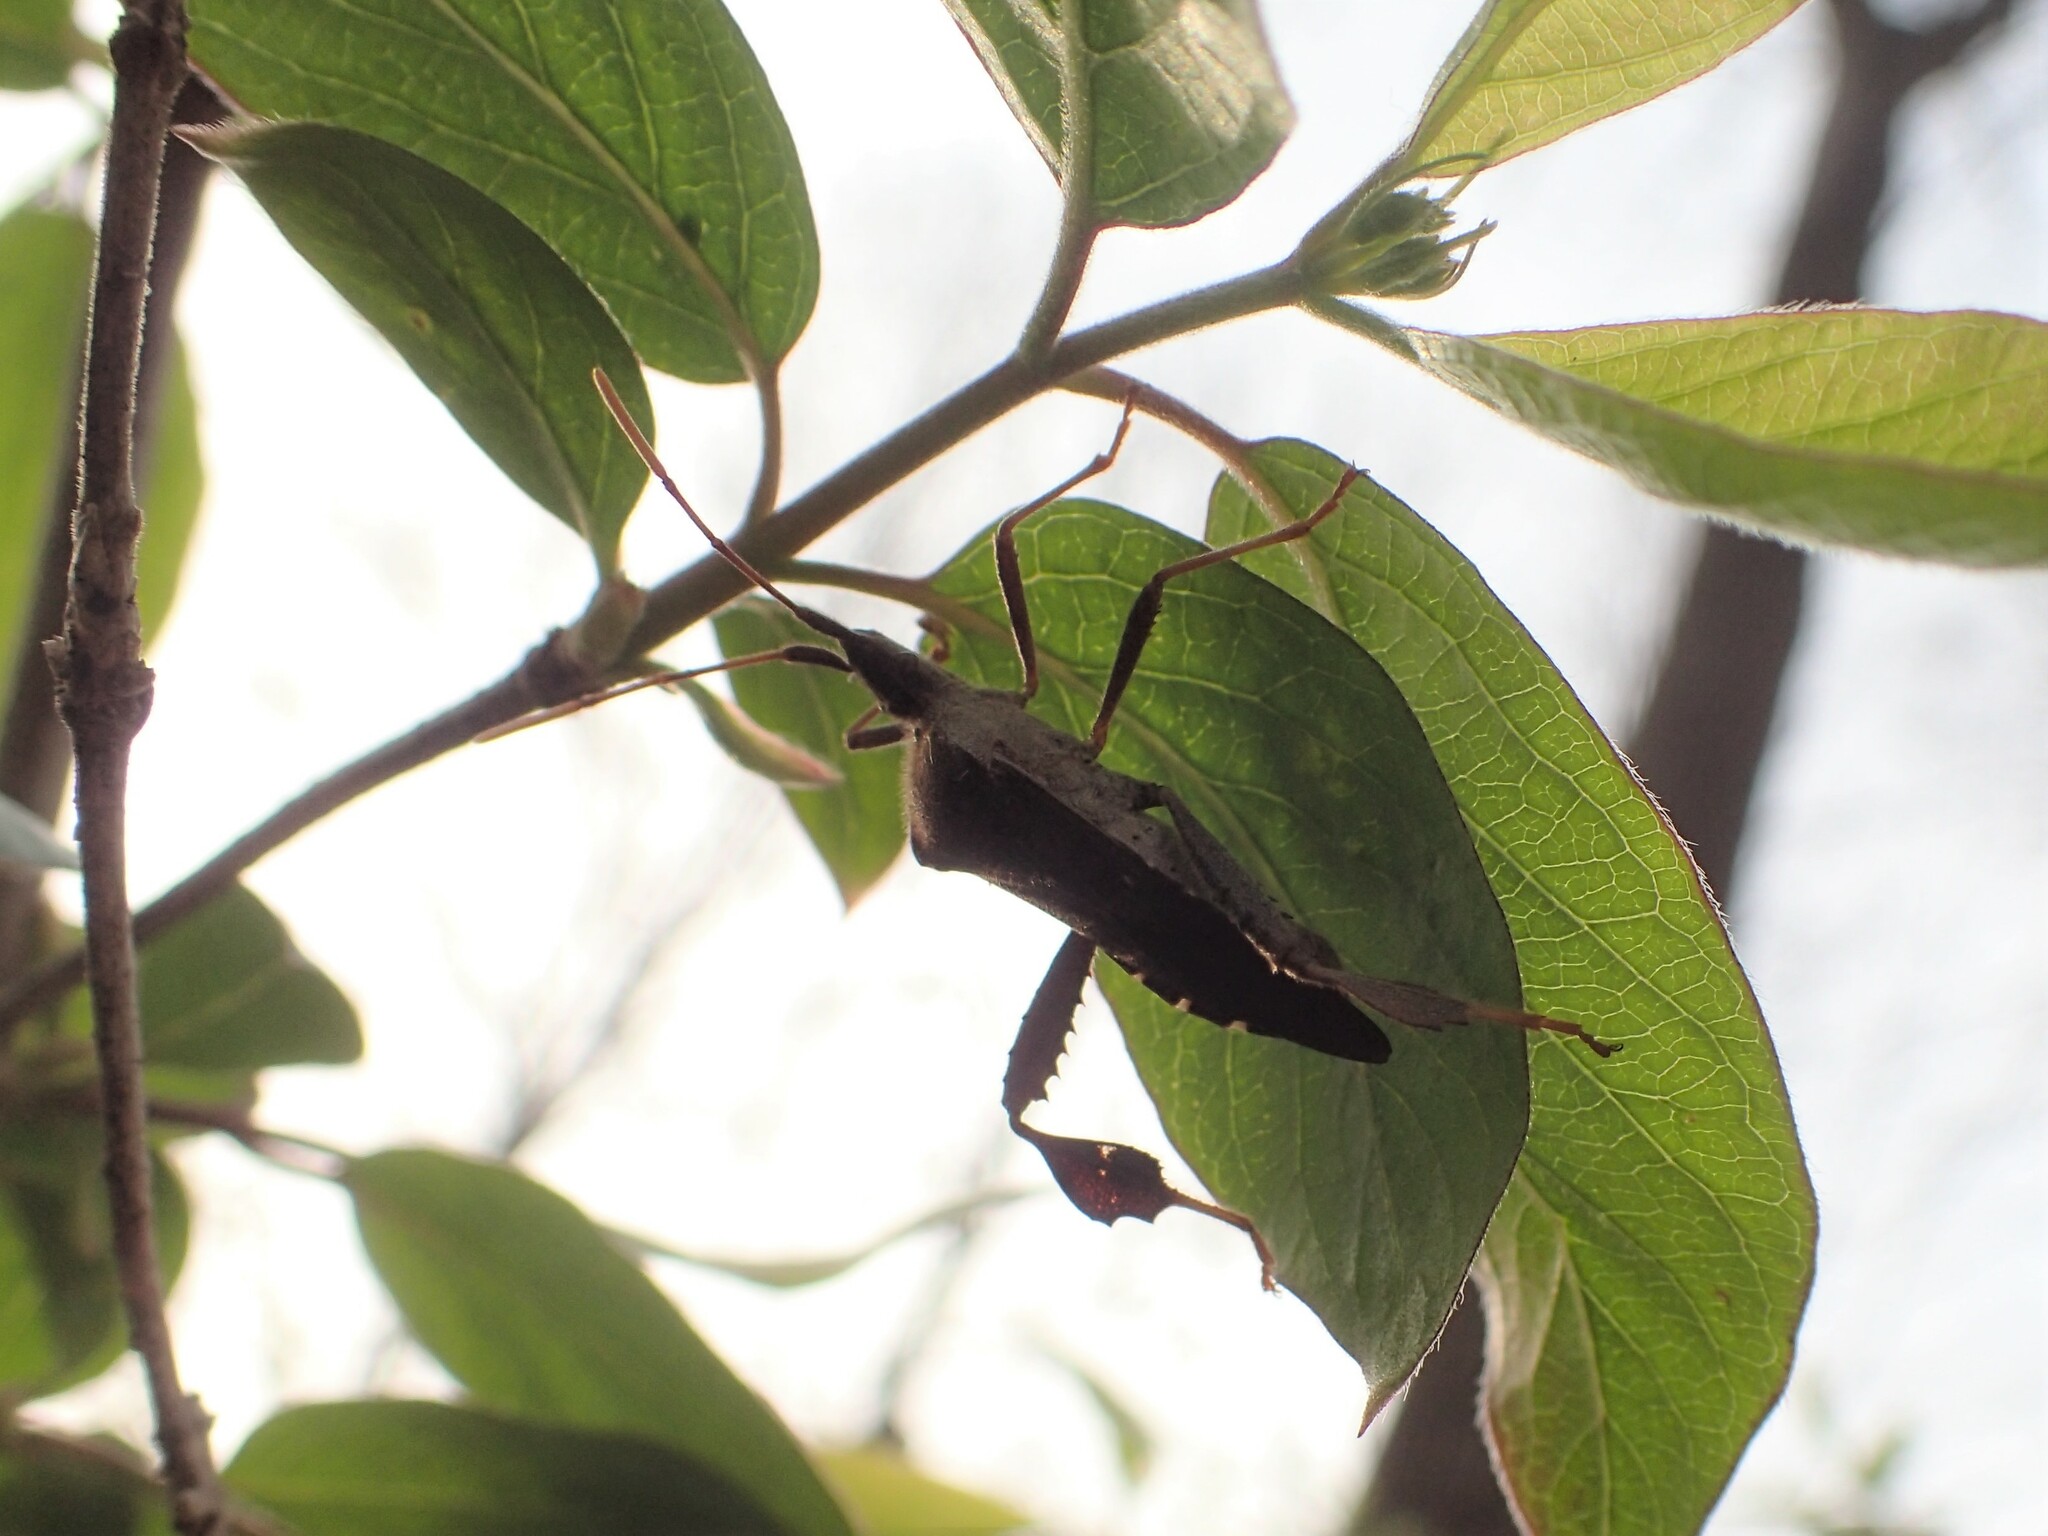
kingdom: Animalia
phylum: Arthropoda
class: Insecta
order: Hemiptera
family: Coreidae
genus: Leptoglossus
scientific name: Leptoglossus oppositus
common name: Northern leaf-footed bug
